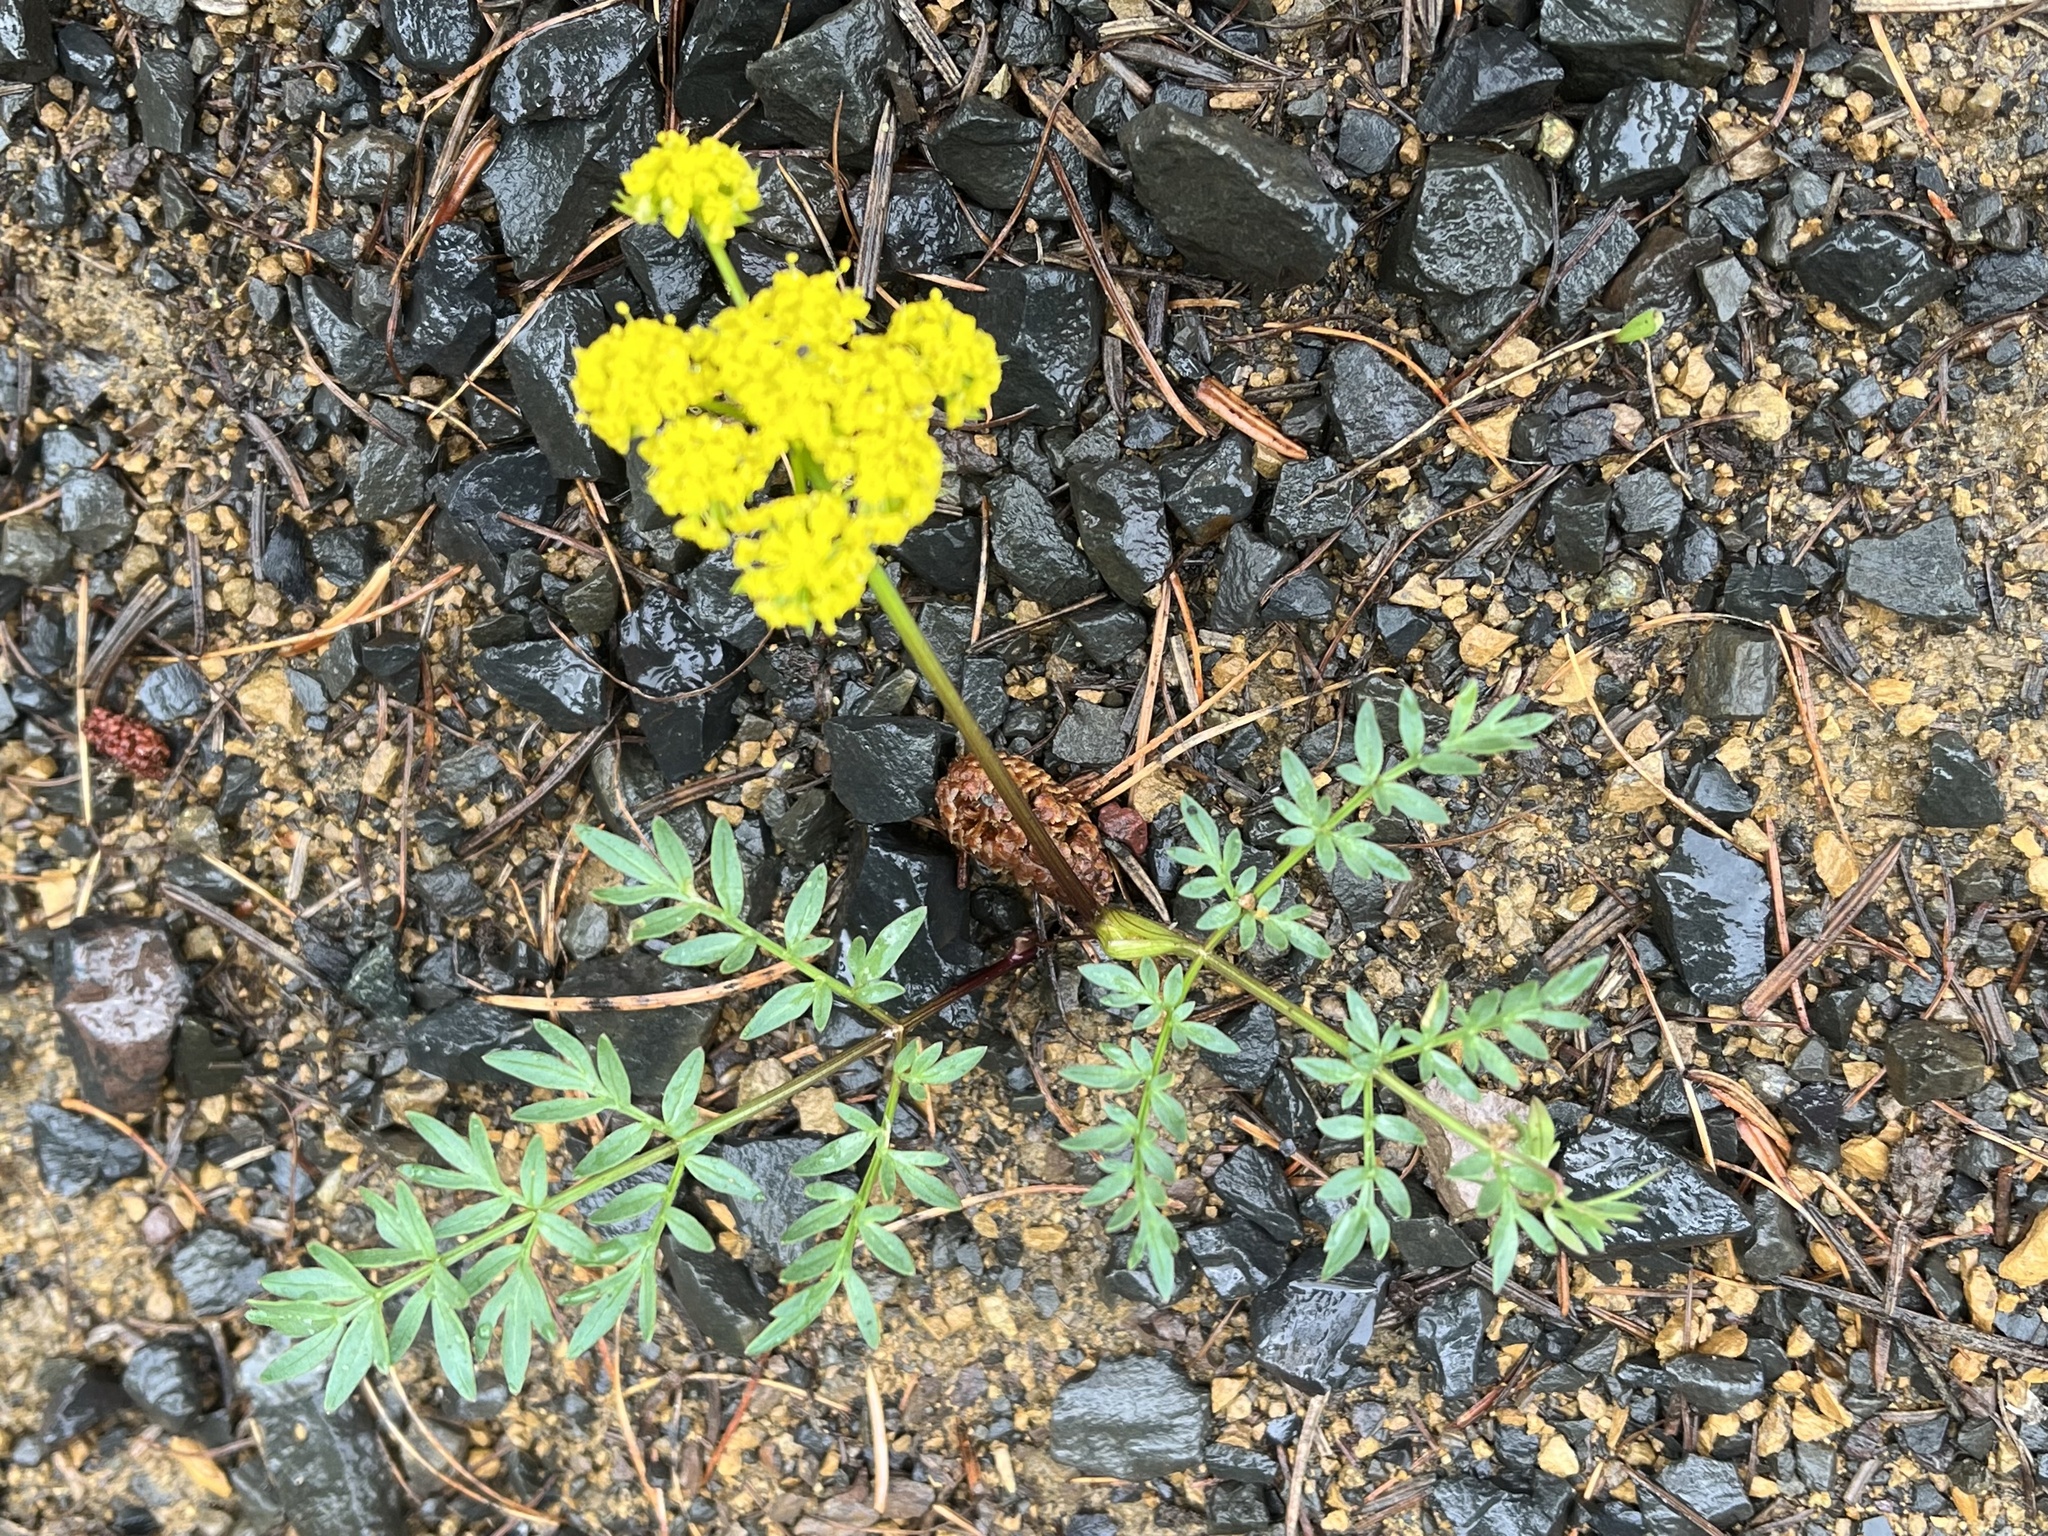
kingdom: Plantae
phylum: Tracheophyta
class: Magnoliopsida
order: Apiales
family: Apiaceae
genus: Lomatium
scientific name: Lomatium cous
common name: Biscuit-root
